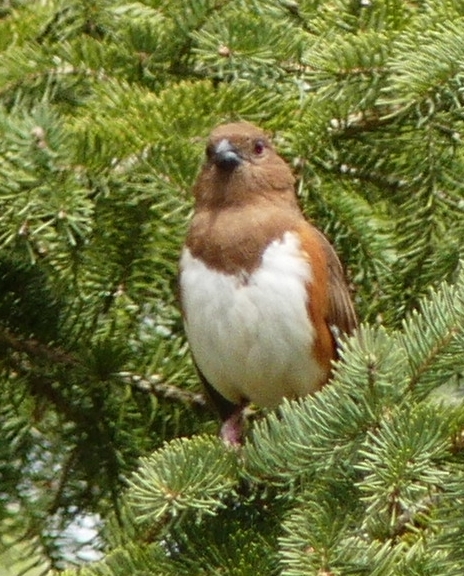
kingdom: Animalia
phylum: Chordata
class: Aves
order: Passeriformes
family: Passerellidae
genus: Pipilo
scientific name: Pipilo erythrophthalmus
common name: Eastern towhee
